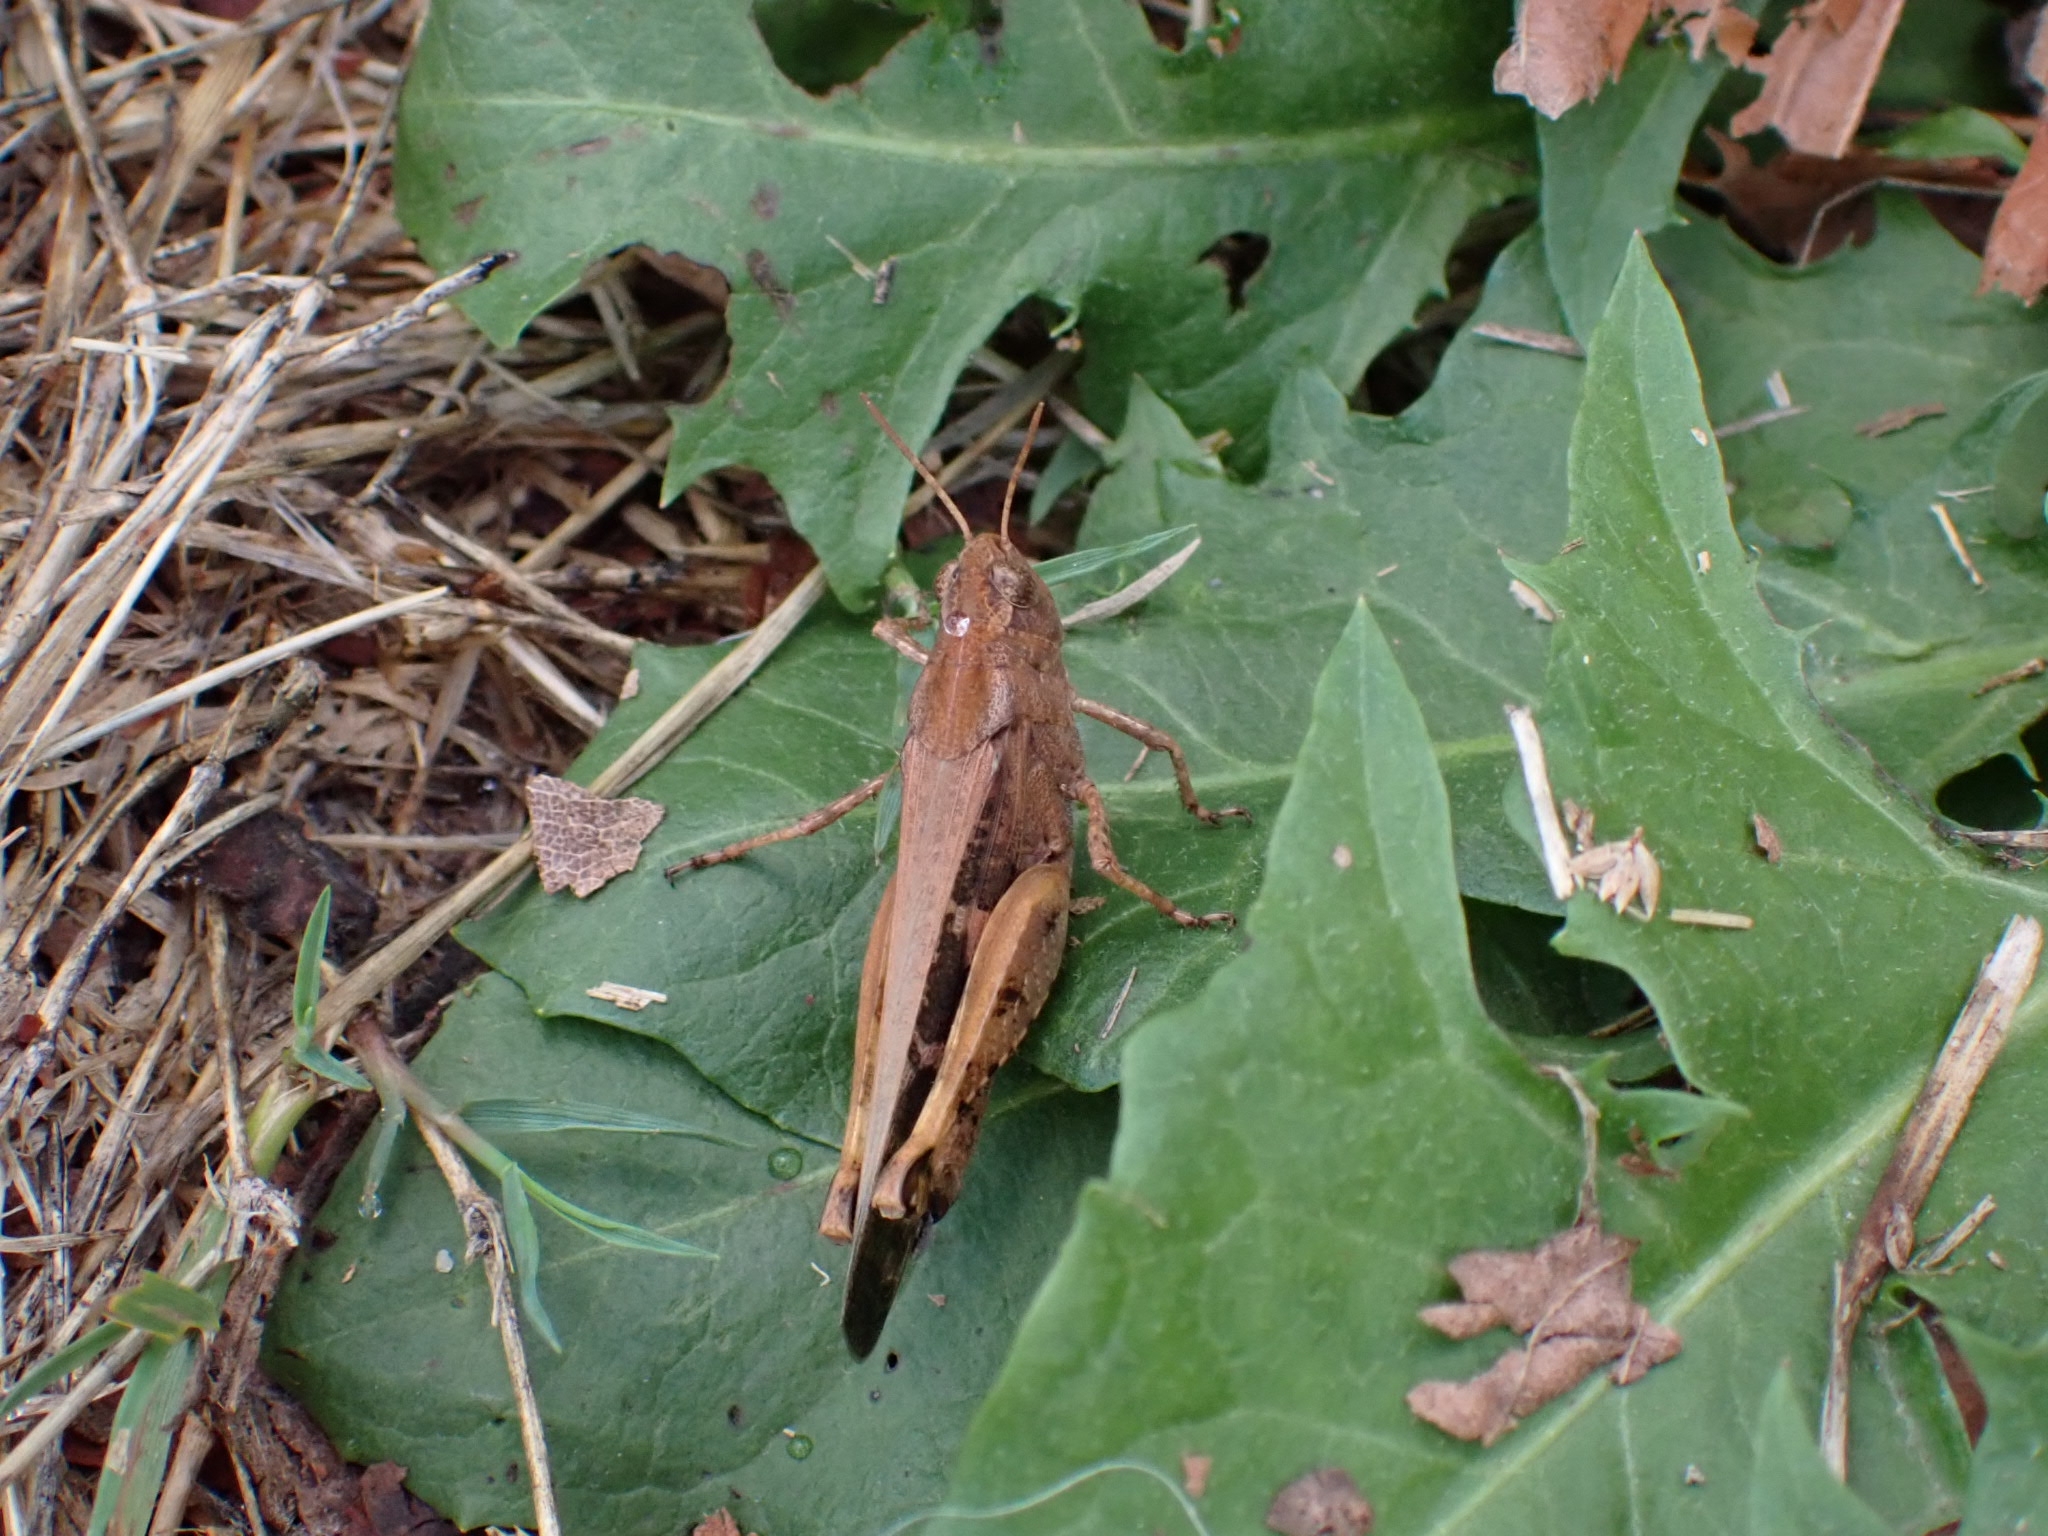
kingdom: Animalia
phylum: Arthropoda
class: Insecta
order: Orthoptera
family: Acrididae
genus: Aiolopus
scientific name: Aiolopus strepens
